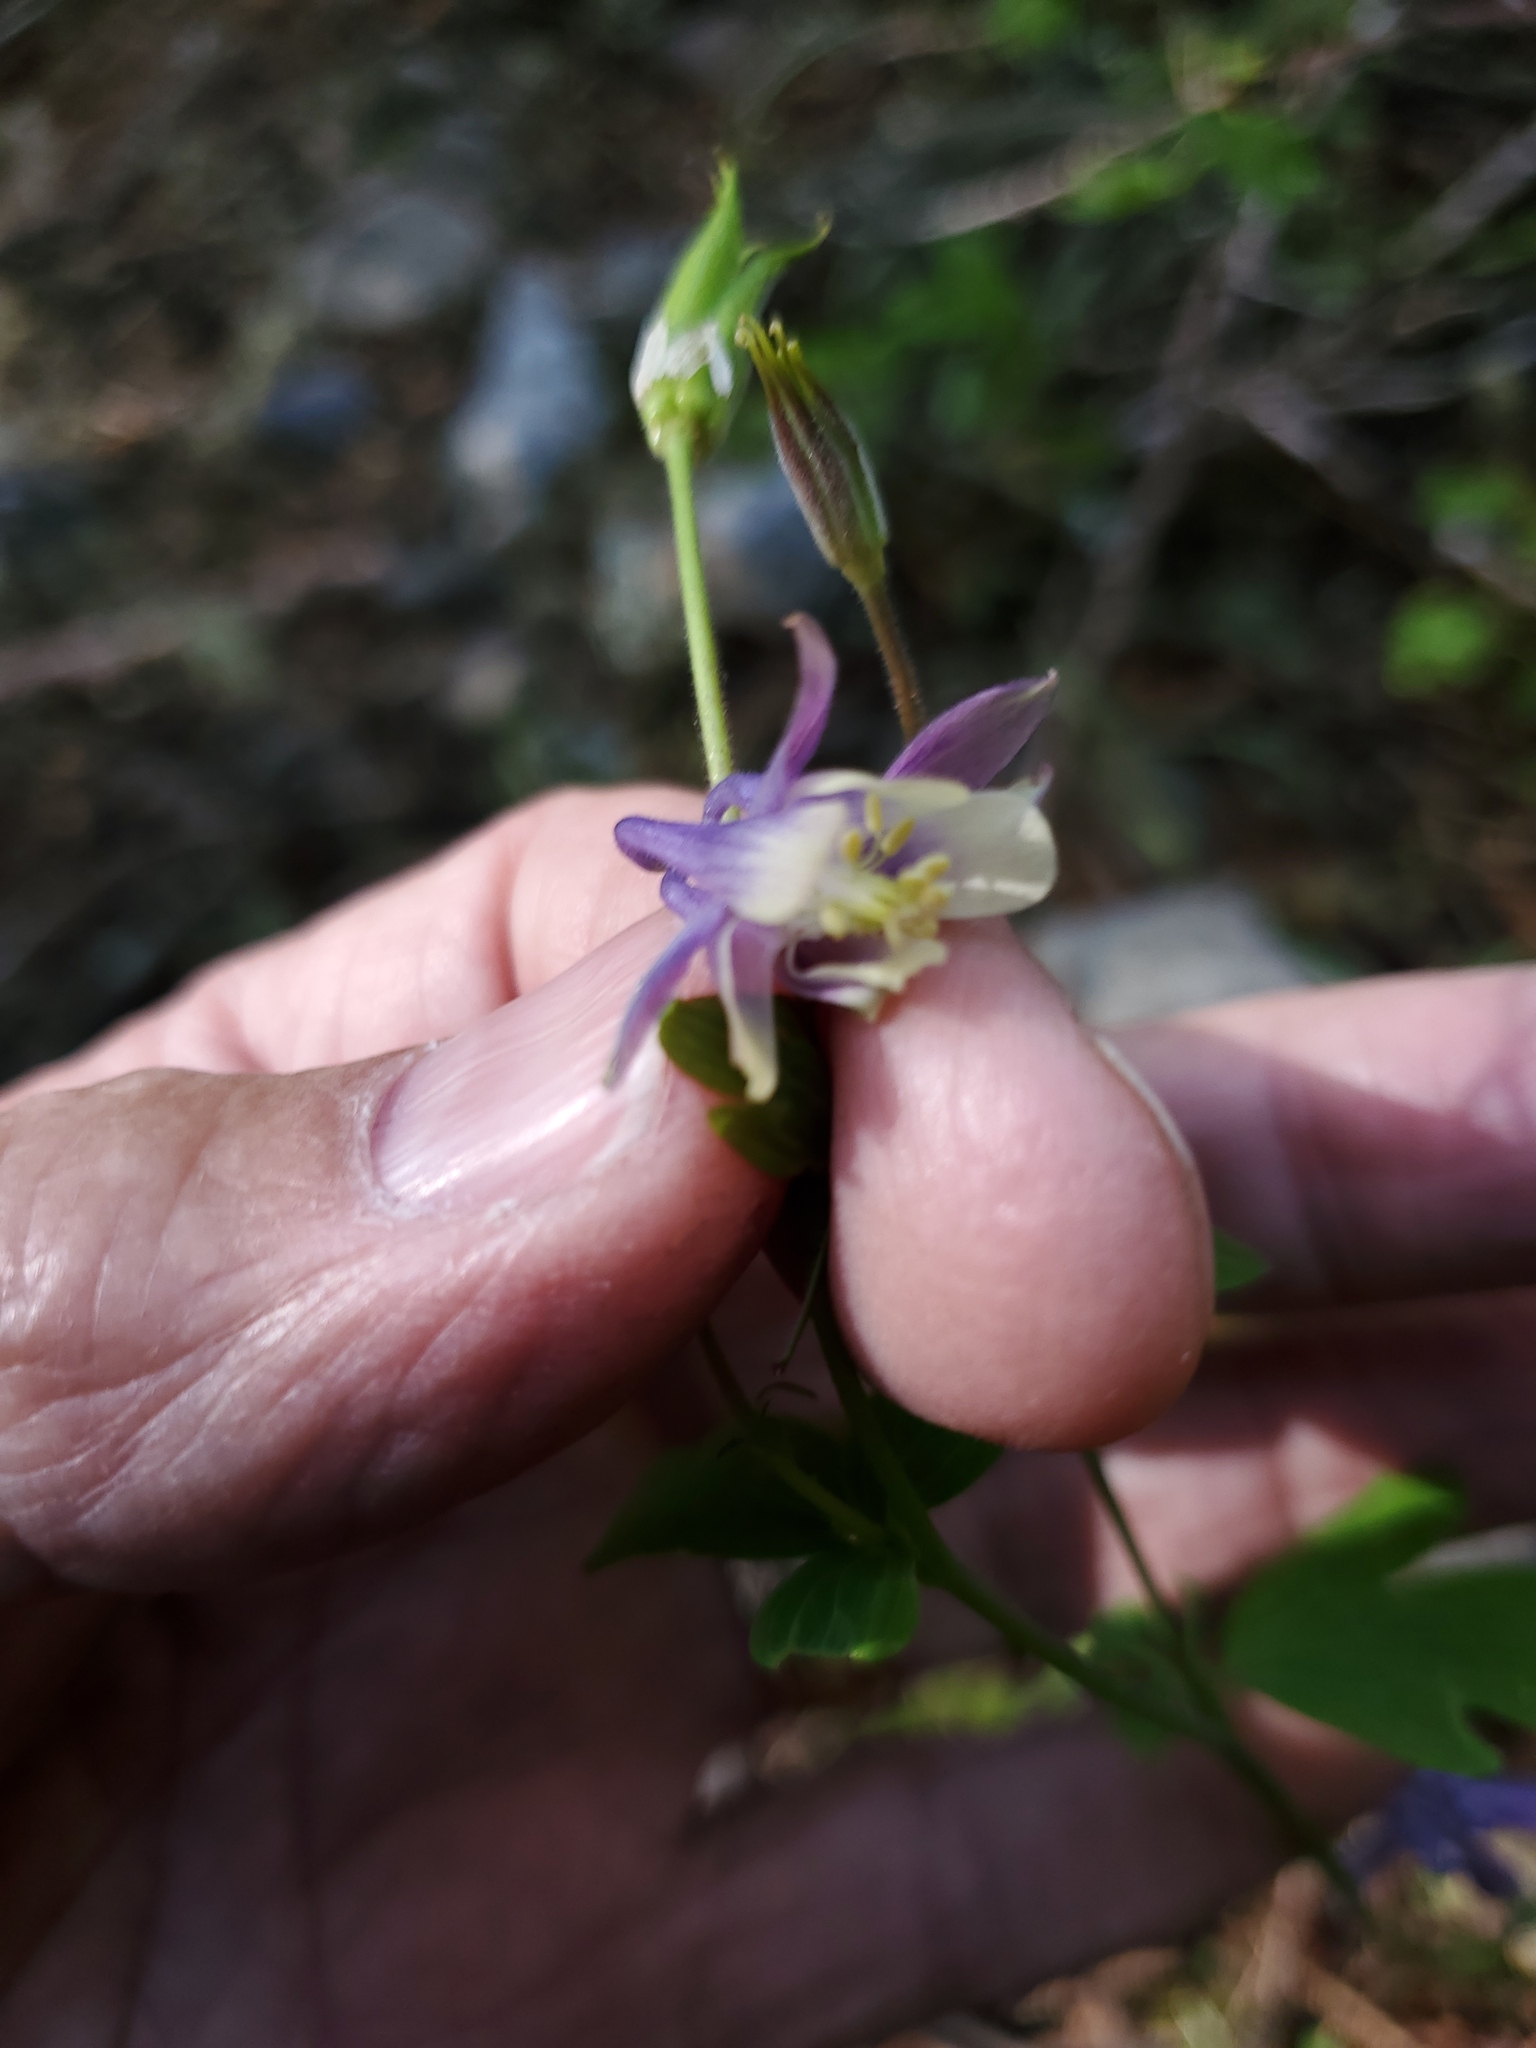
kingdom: Plantae
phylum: Tracheophyta
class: Magnoliopsida
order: Ranunculales
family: Ranunculaceae
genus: Aquilegia
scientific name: Aquilegia brevistyla
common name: Yukon columbine
